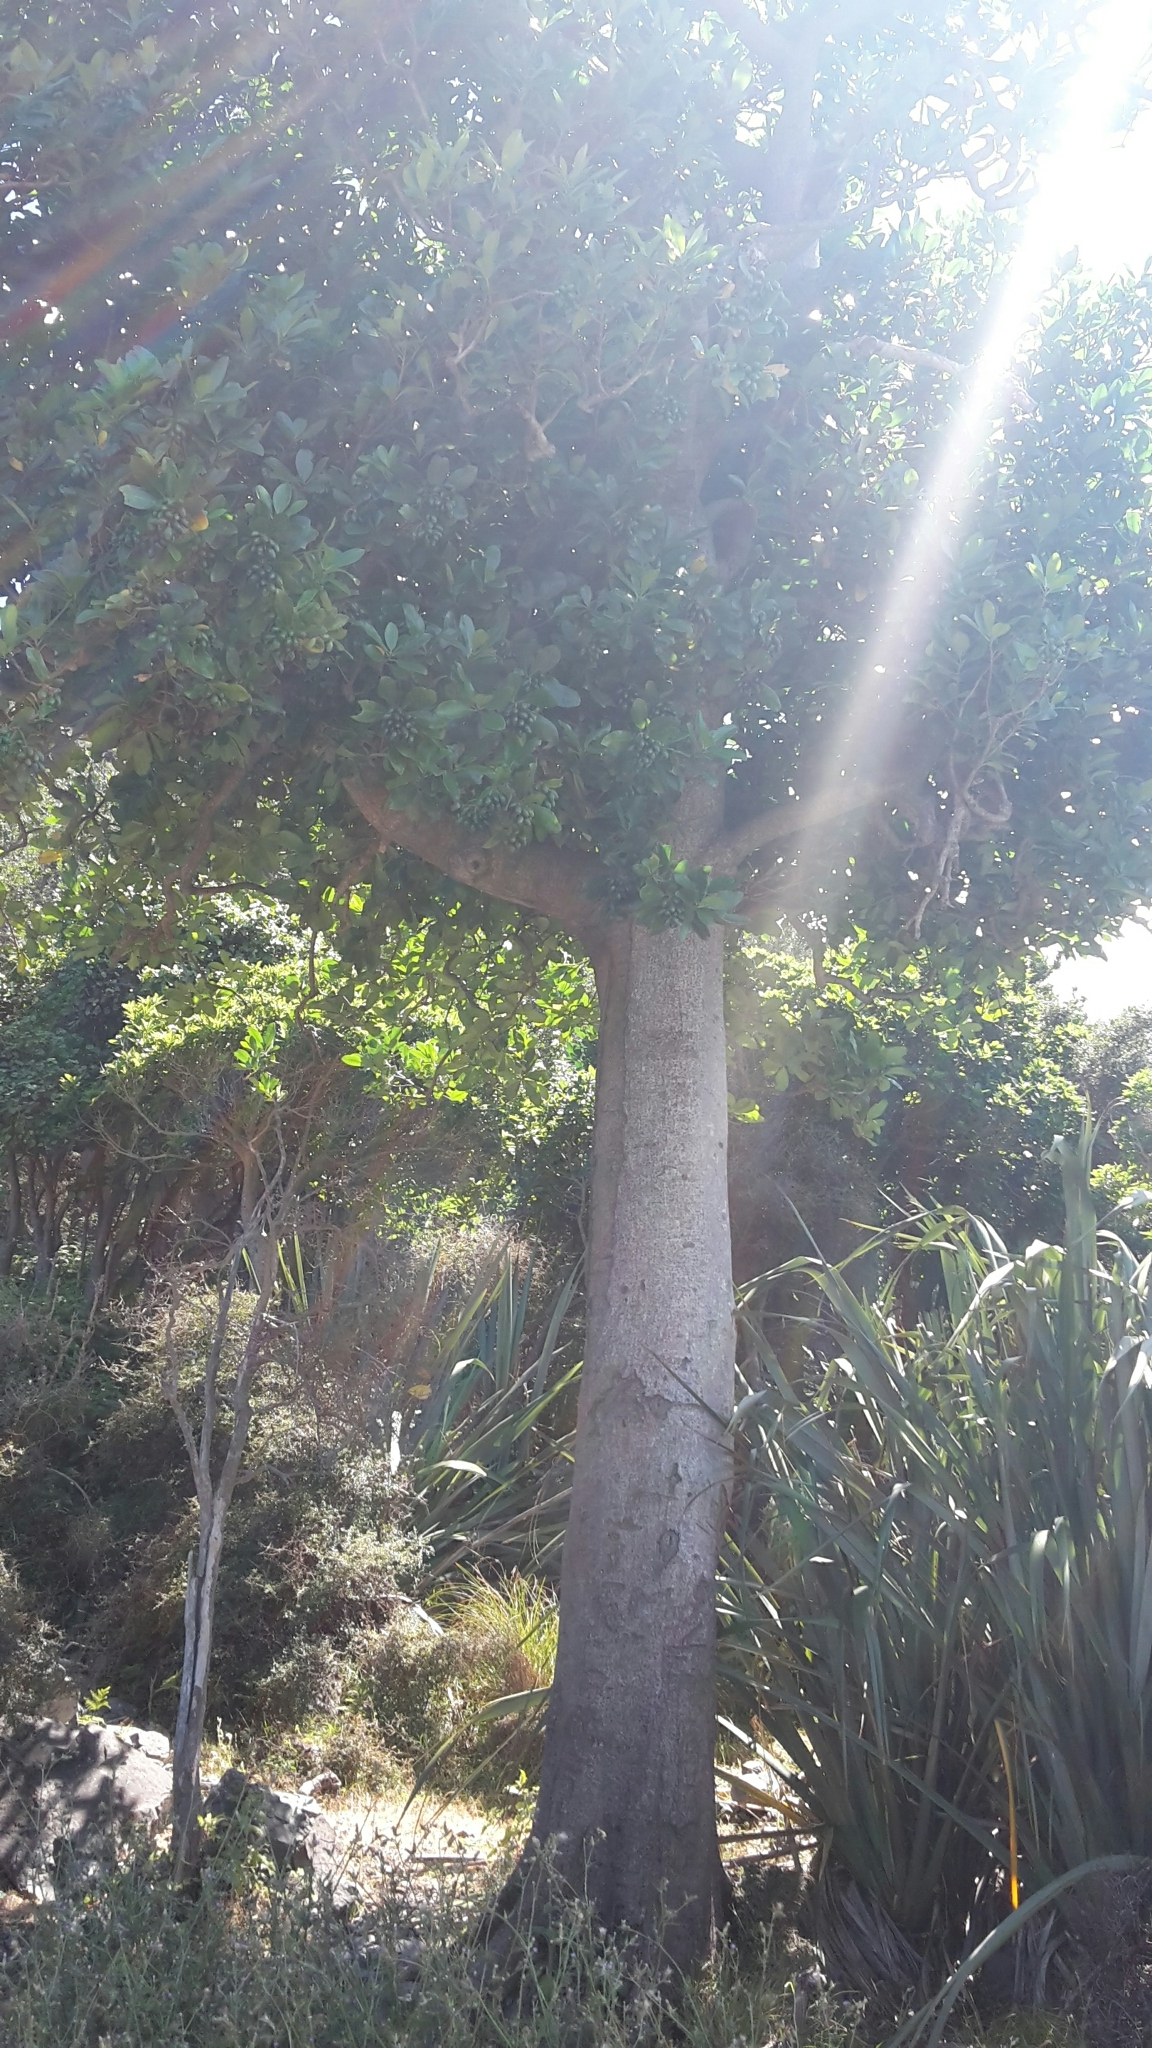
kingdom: Plantae
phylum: Tracheophyta
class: Magnoliopsida
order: Cucurbitales
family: Corynocarpaceae
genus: Corynocarpus
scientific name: Corynocarpus laevigatus
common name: New zealand laurel
